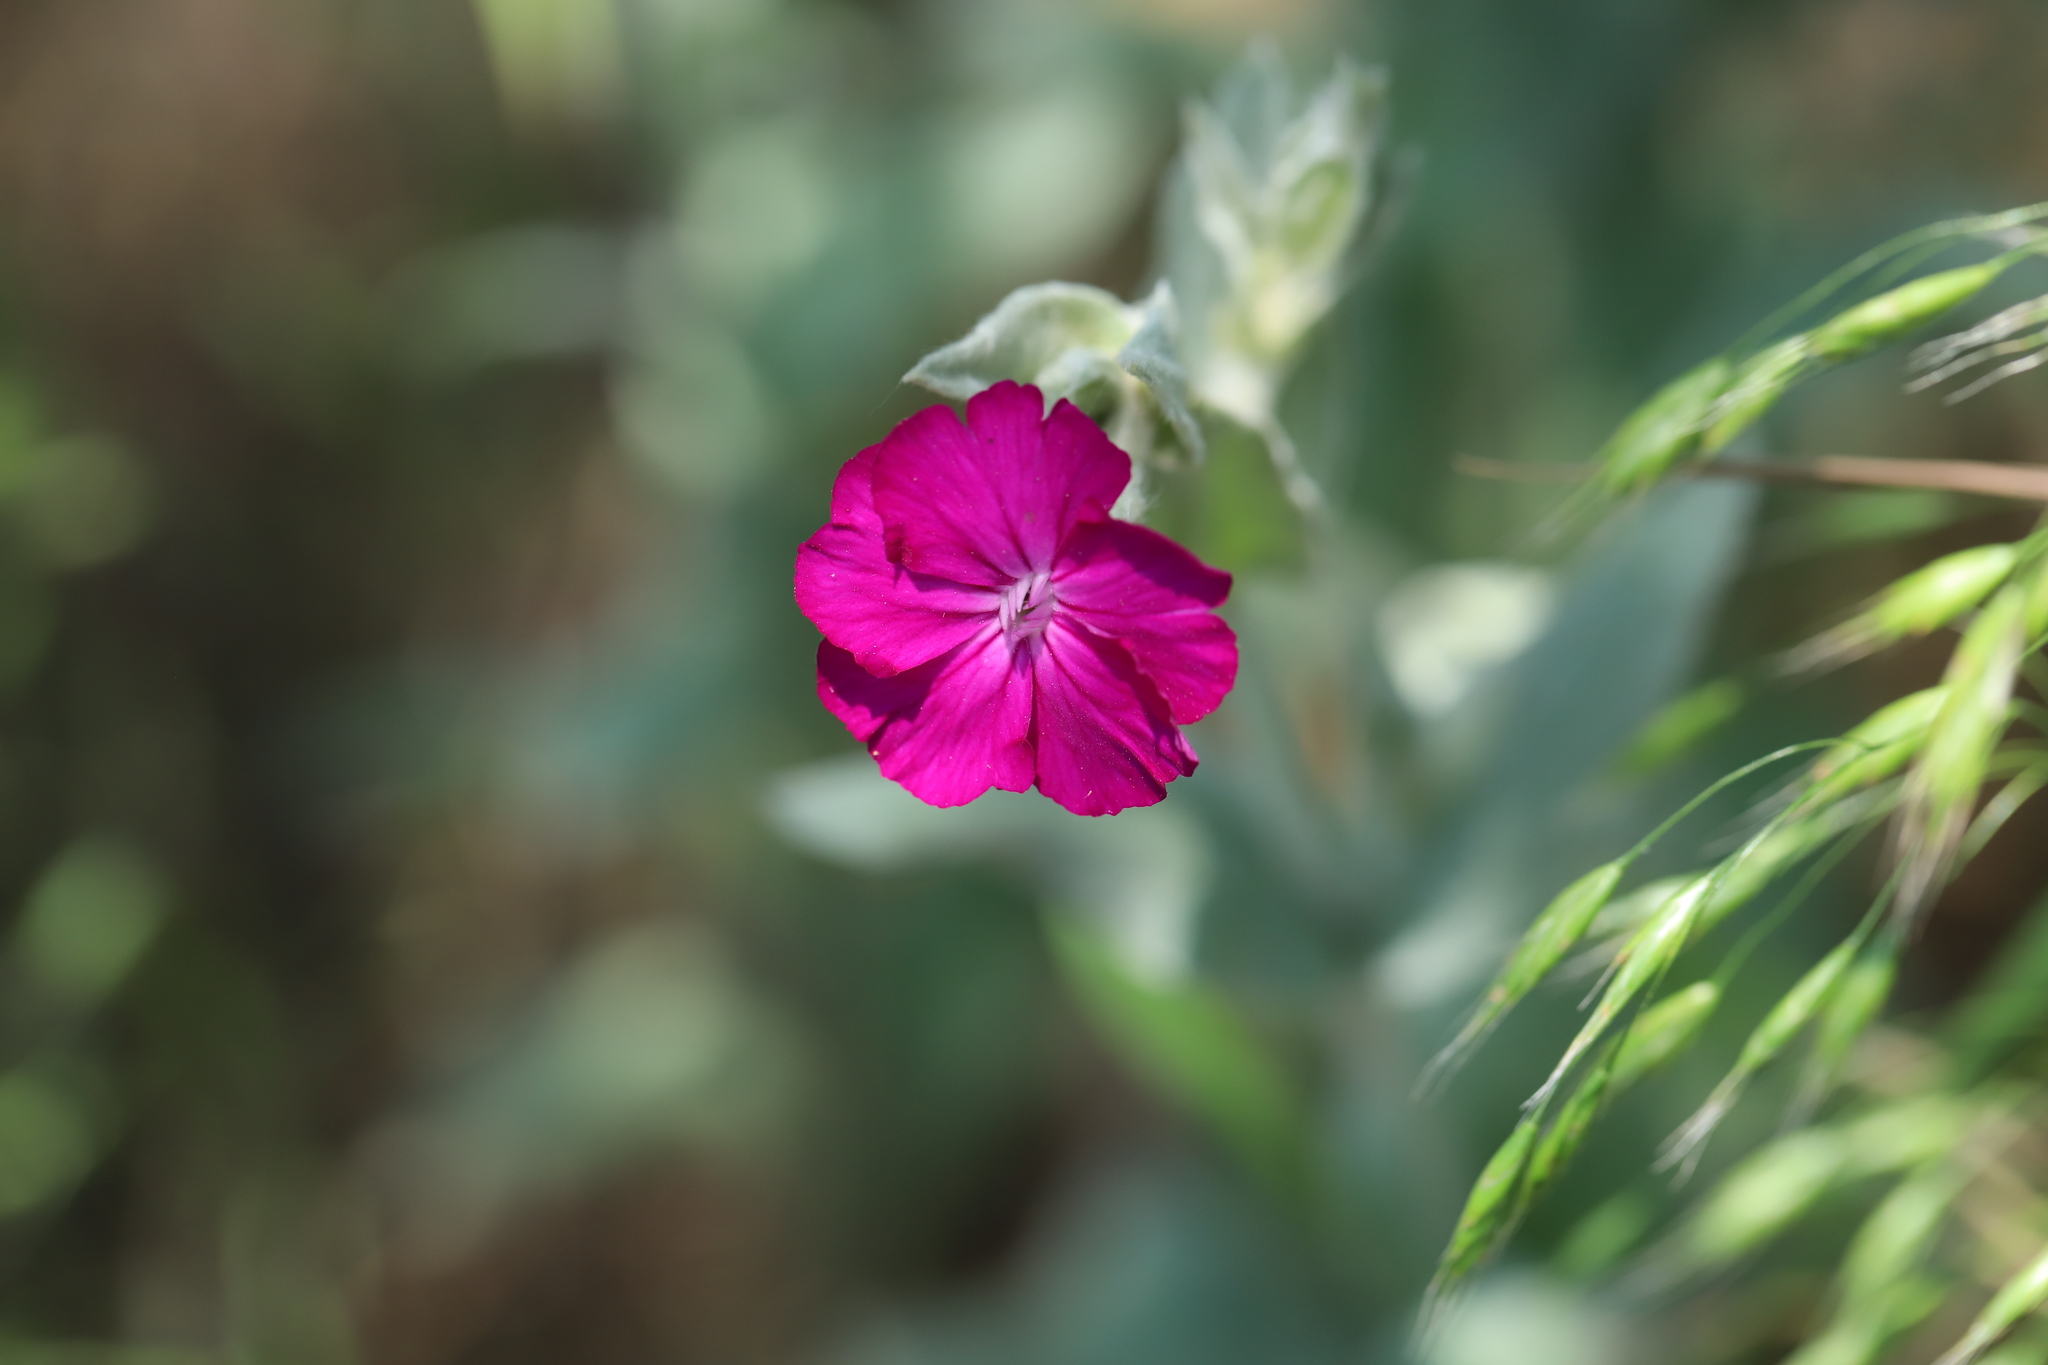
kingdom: Plantae
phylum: Tracheophyta
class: Magnoliopsida
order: Caryophyllales
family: Caryophyllaceae
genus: Silene
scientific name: Silene coronaria
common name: Rose campion
